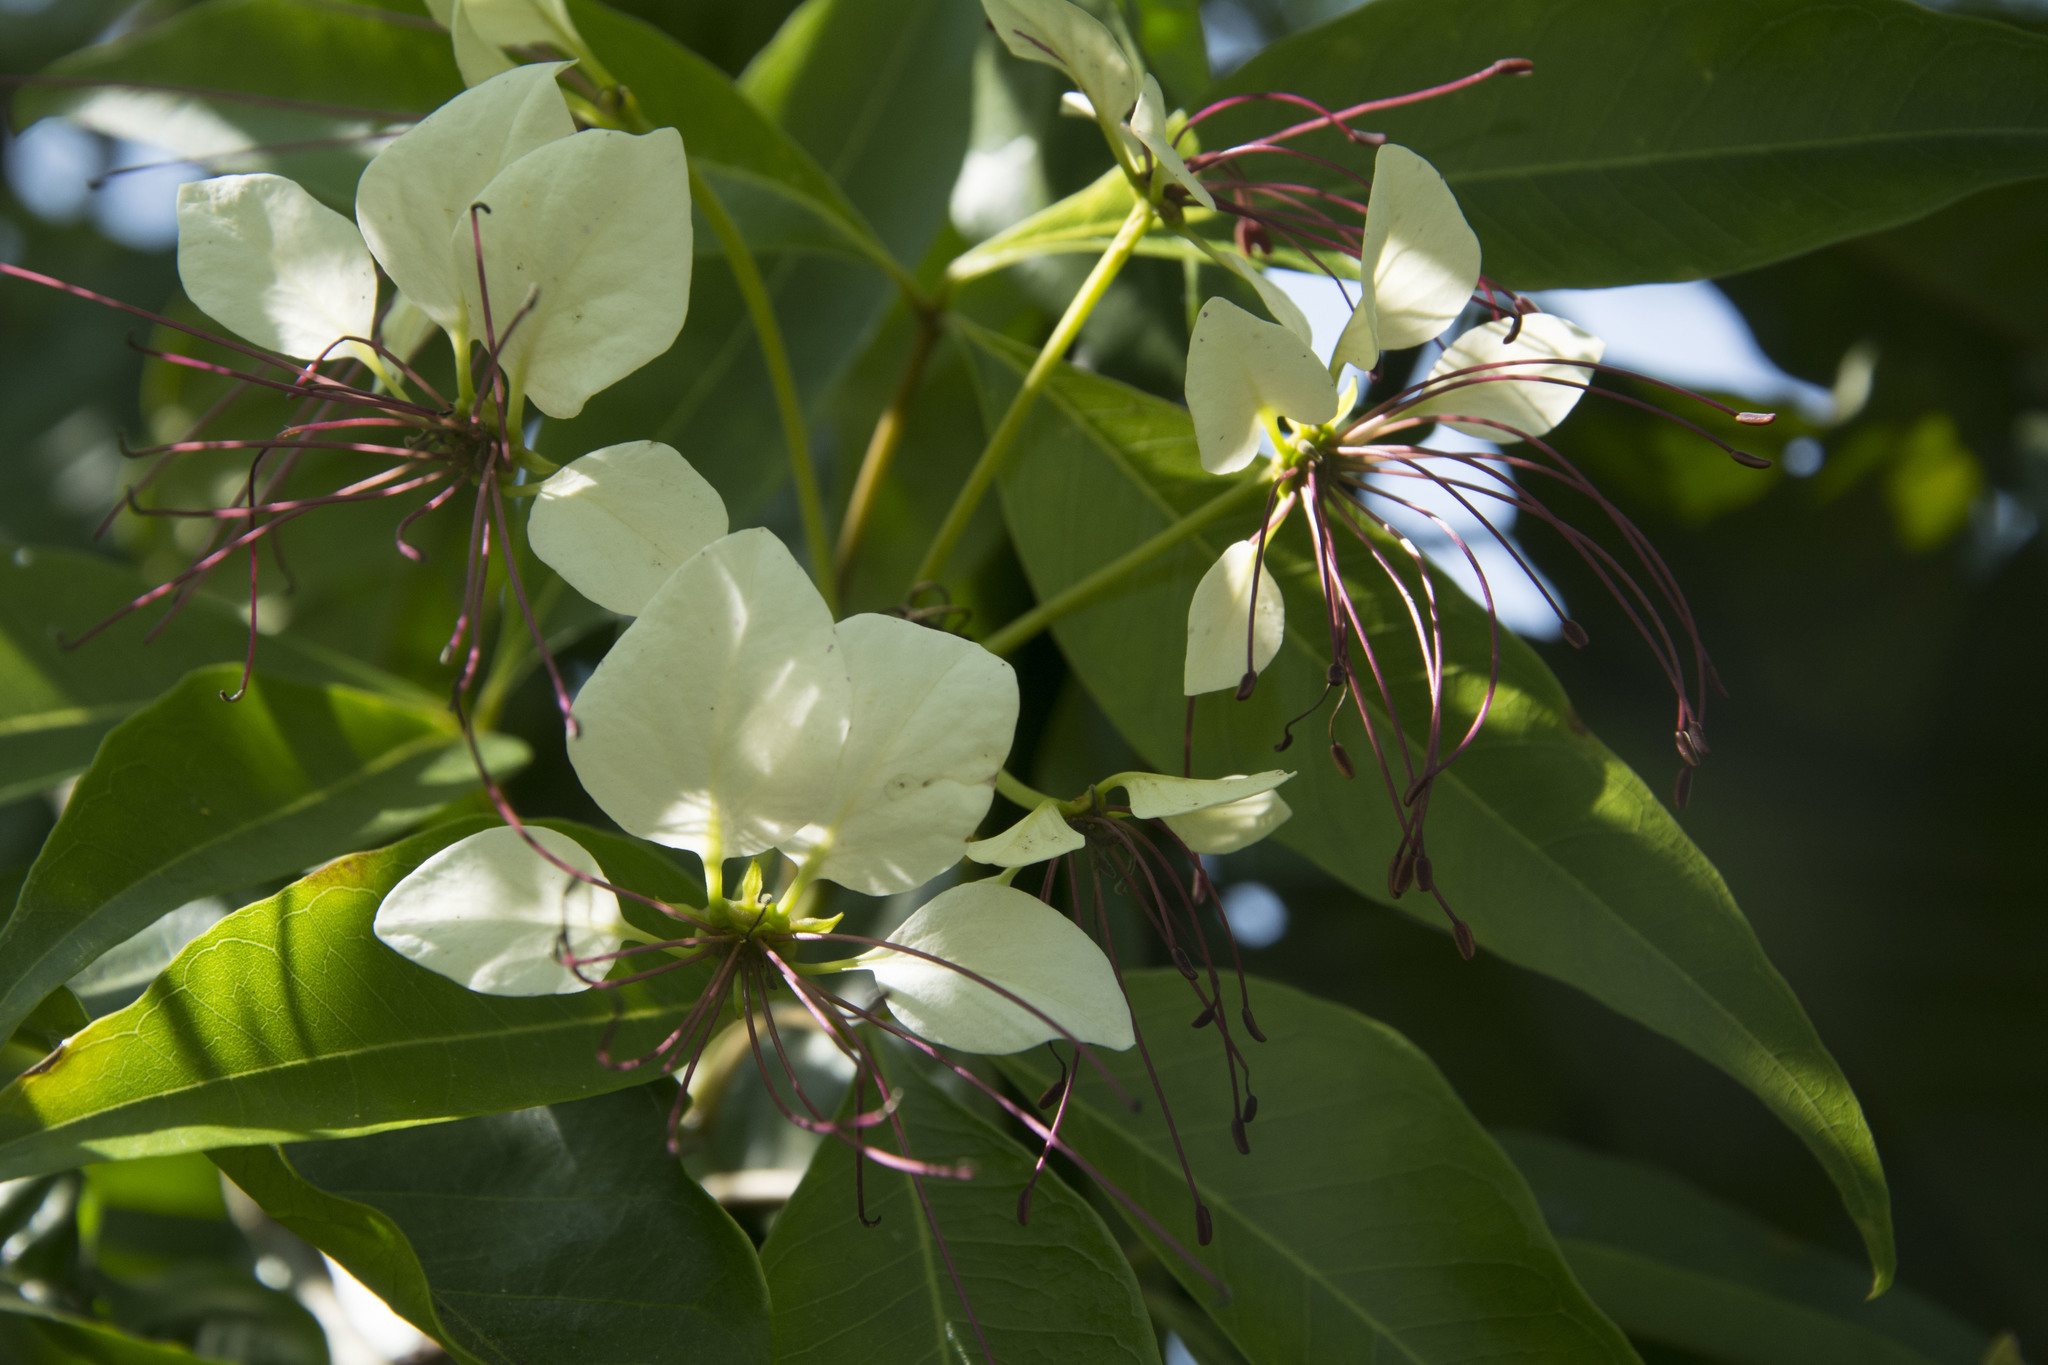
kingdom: Plantae
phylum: Tracheophyta
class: Magnoliopsida
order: Brassicales
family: Capparaceae
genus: Crateva
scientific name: Crateva magna
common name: Three-leaf-caper
